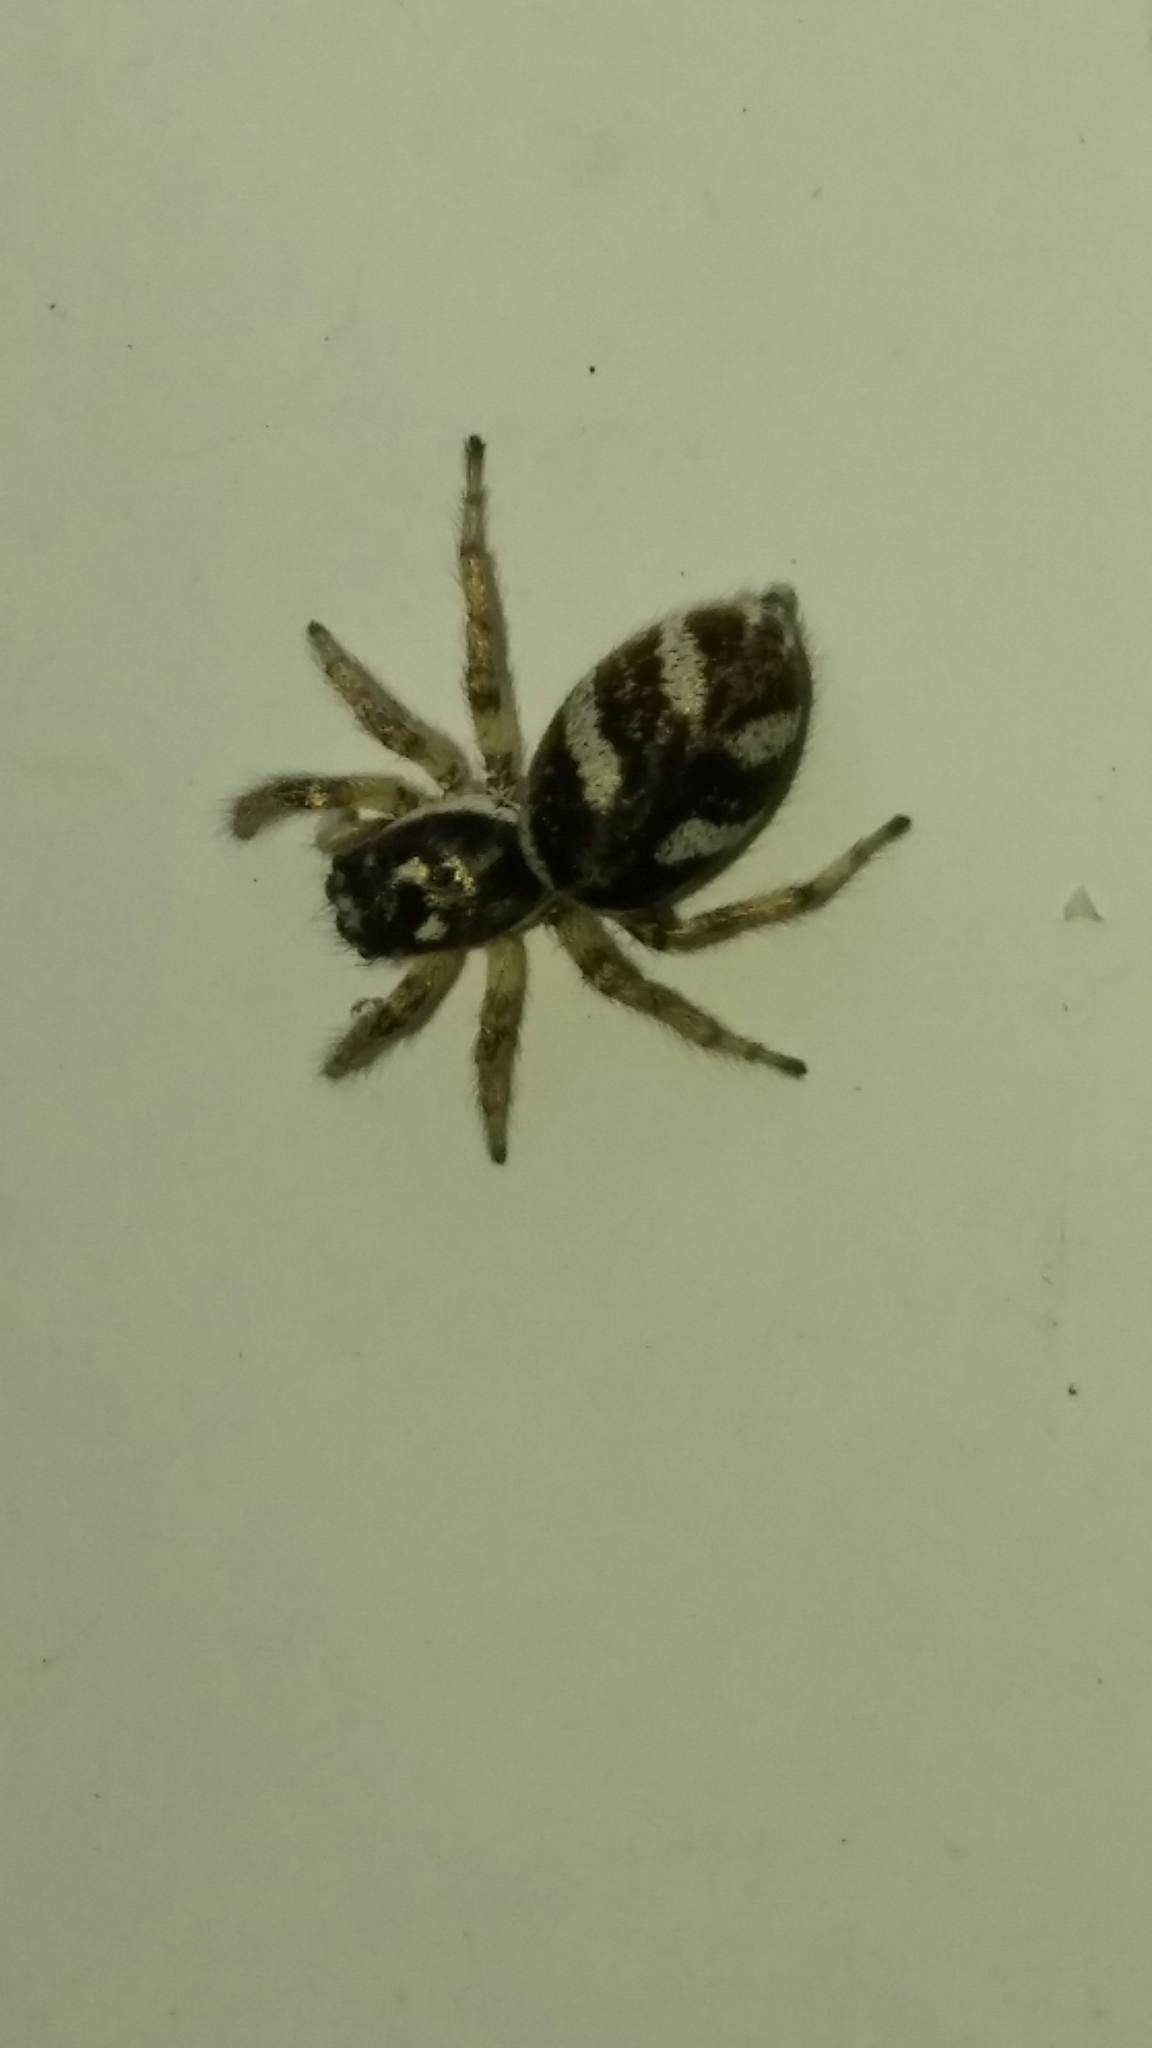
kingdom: Animalia
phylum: Arthropoda
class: Arachnida
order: Araneae
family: Salticidae
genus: Salticus
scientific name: Salticus scenicus
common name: Zebra jumper
